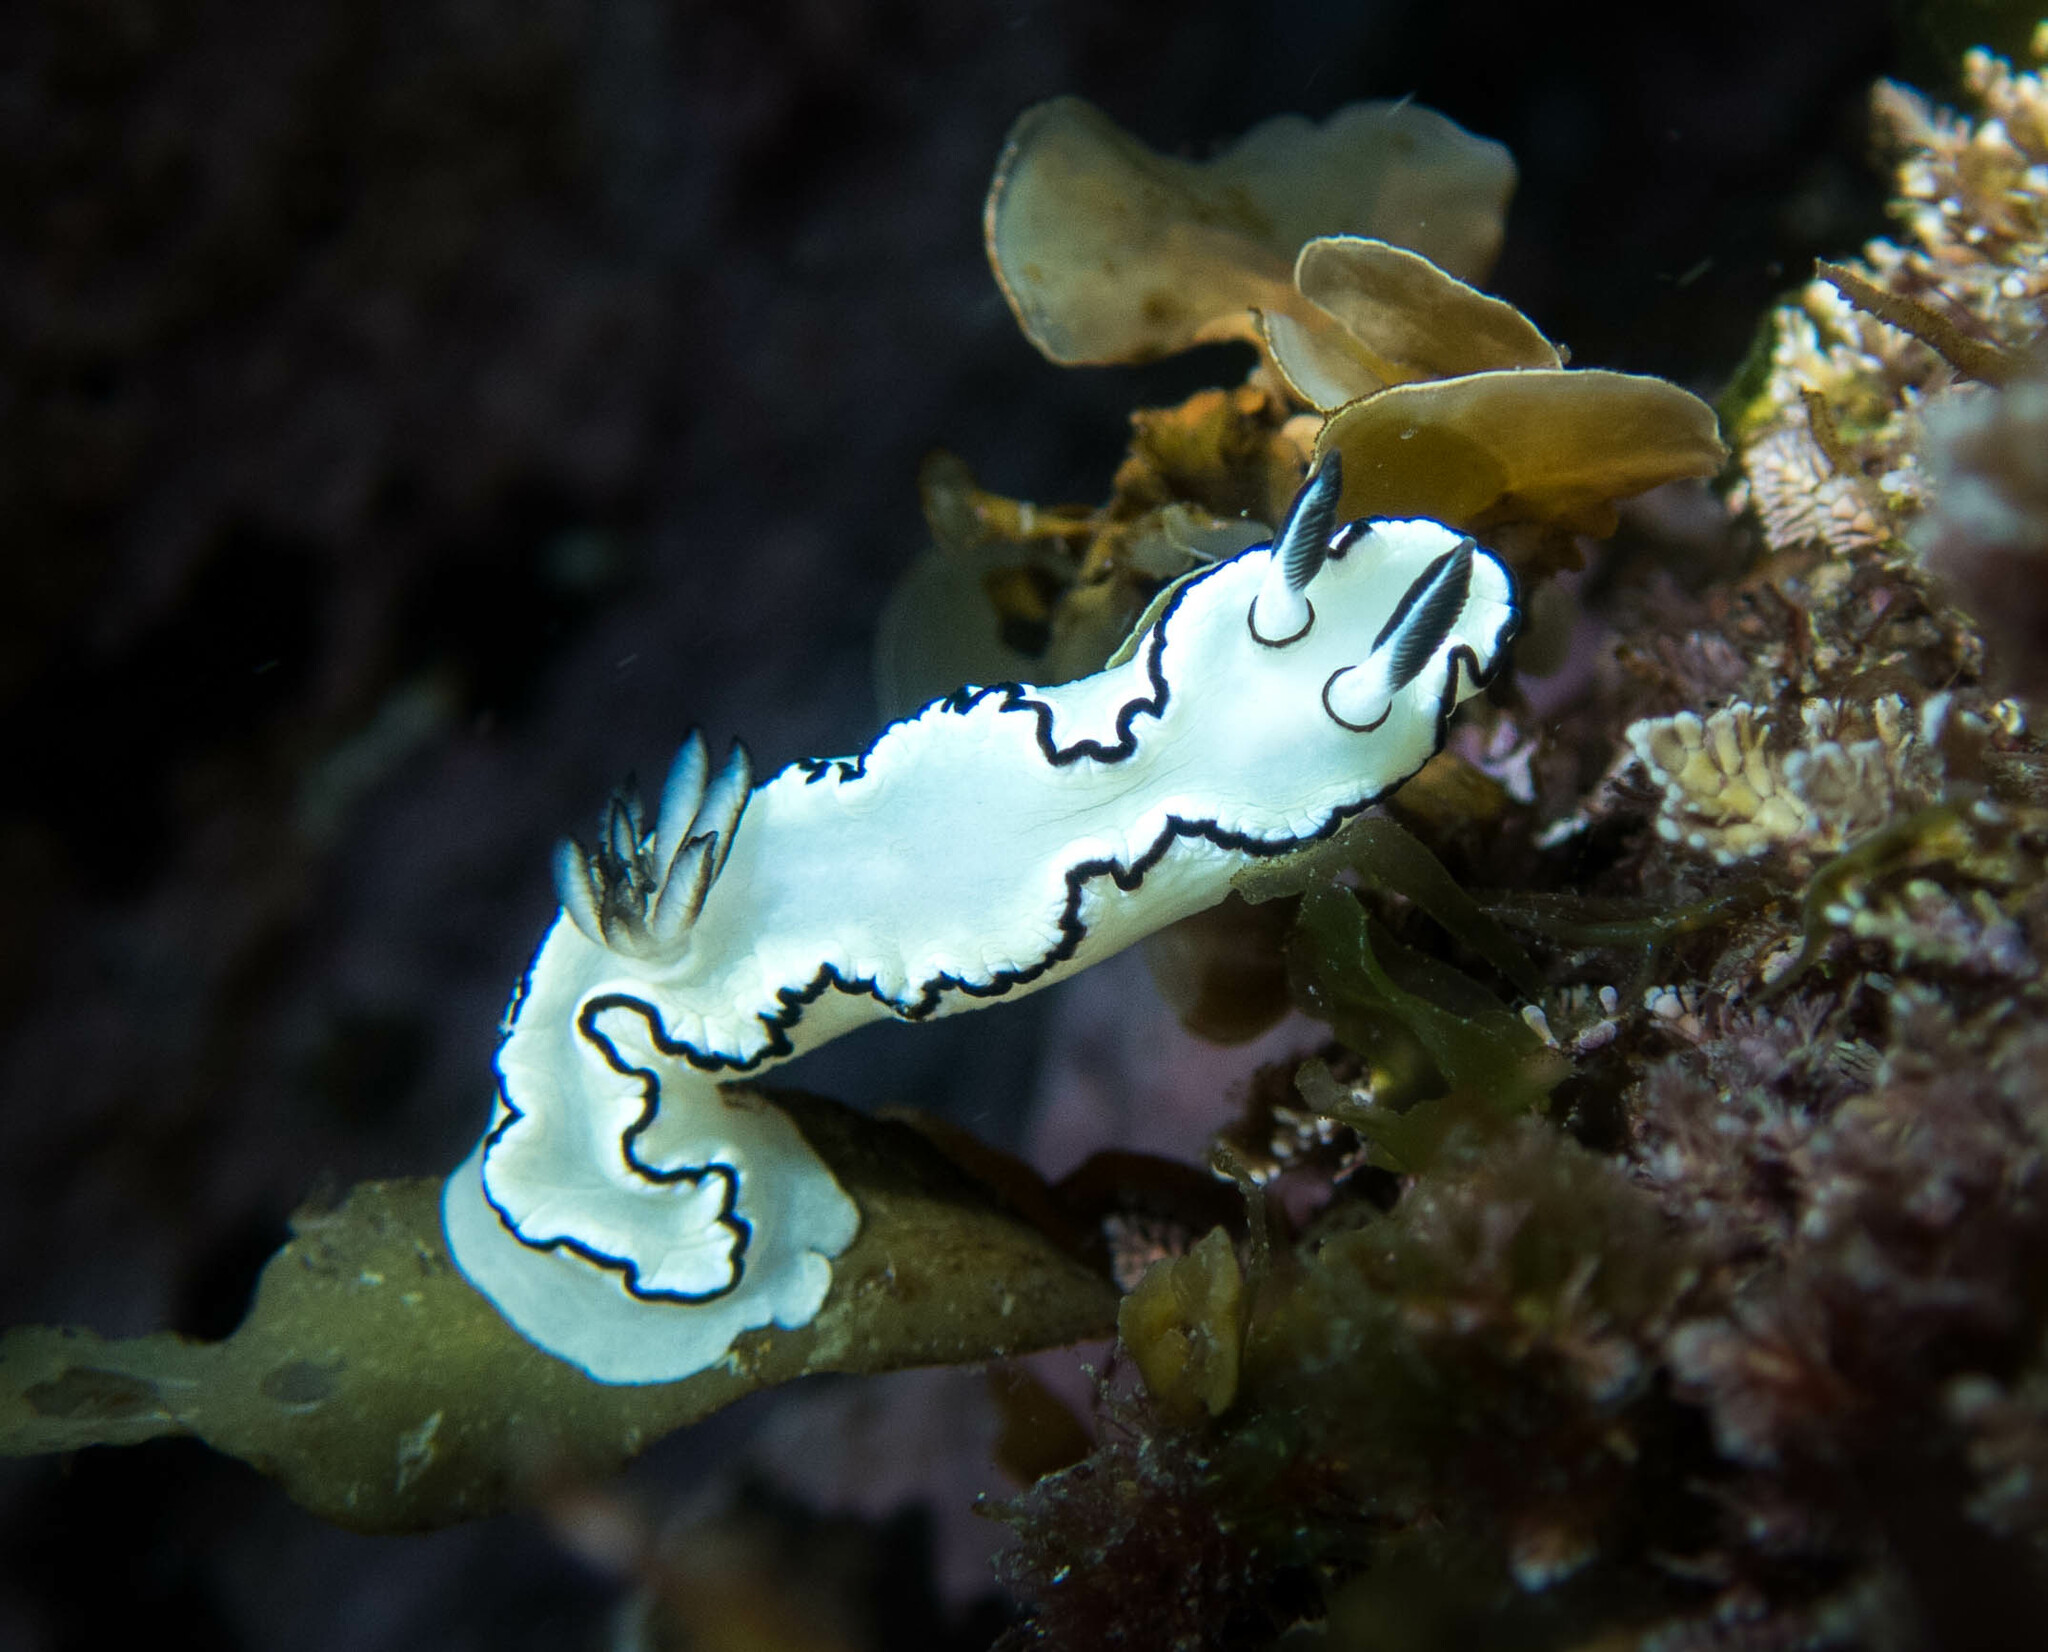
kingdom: Animalia
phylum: Mollusca
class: Gastropoda
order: Nudibranchia
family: Chromodorididae
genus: Doriprismatica
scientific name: Doriprismatica atromarginata
